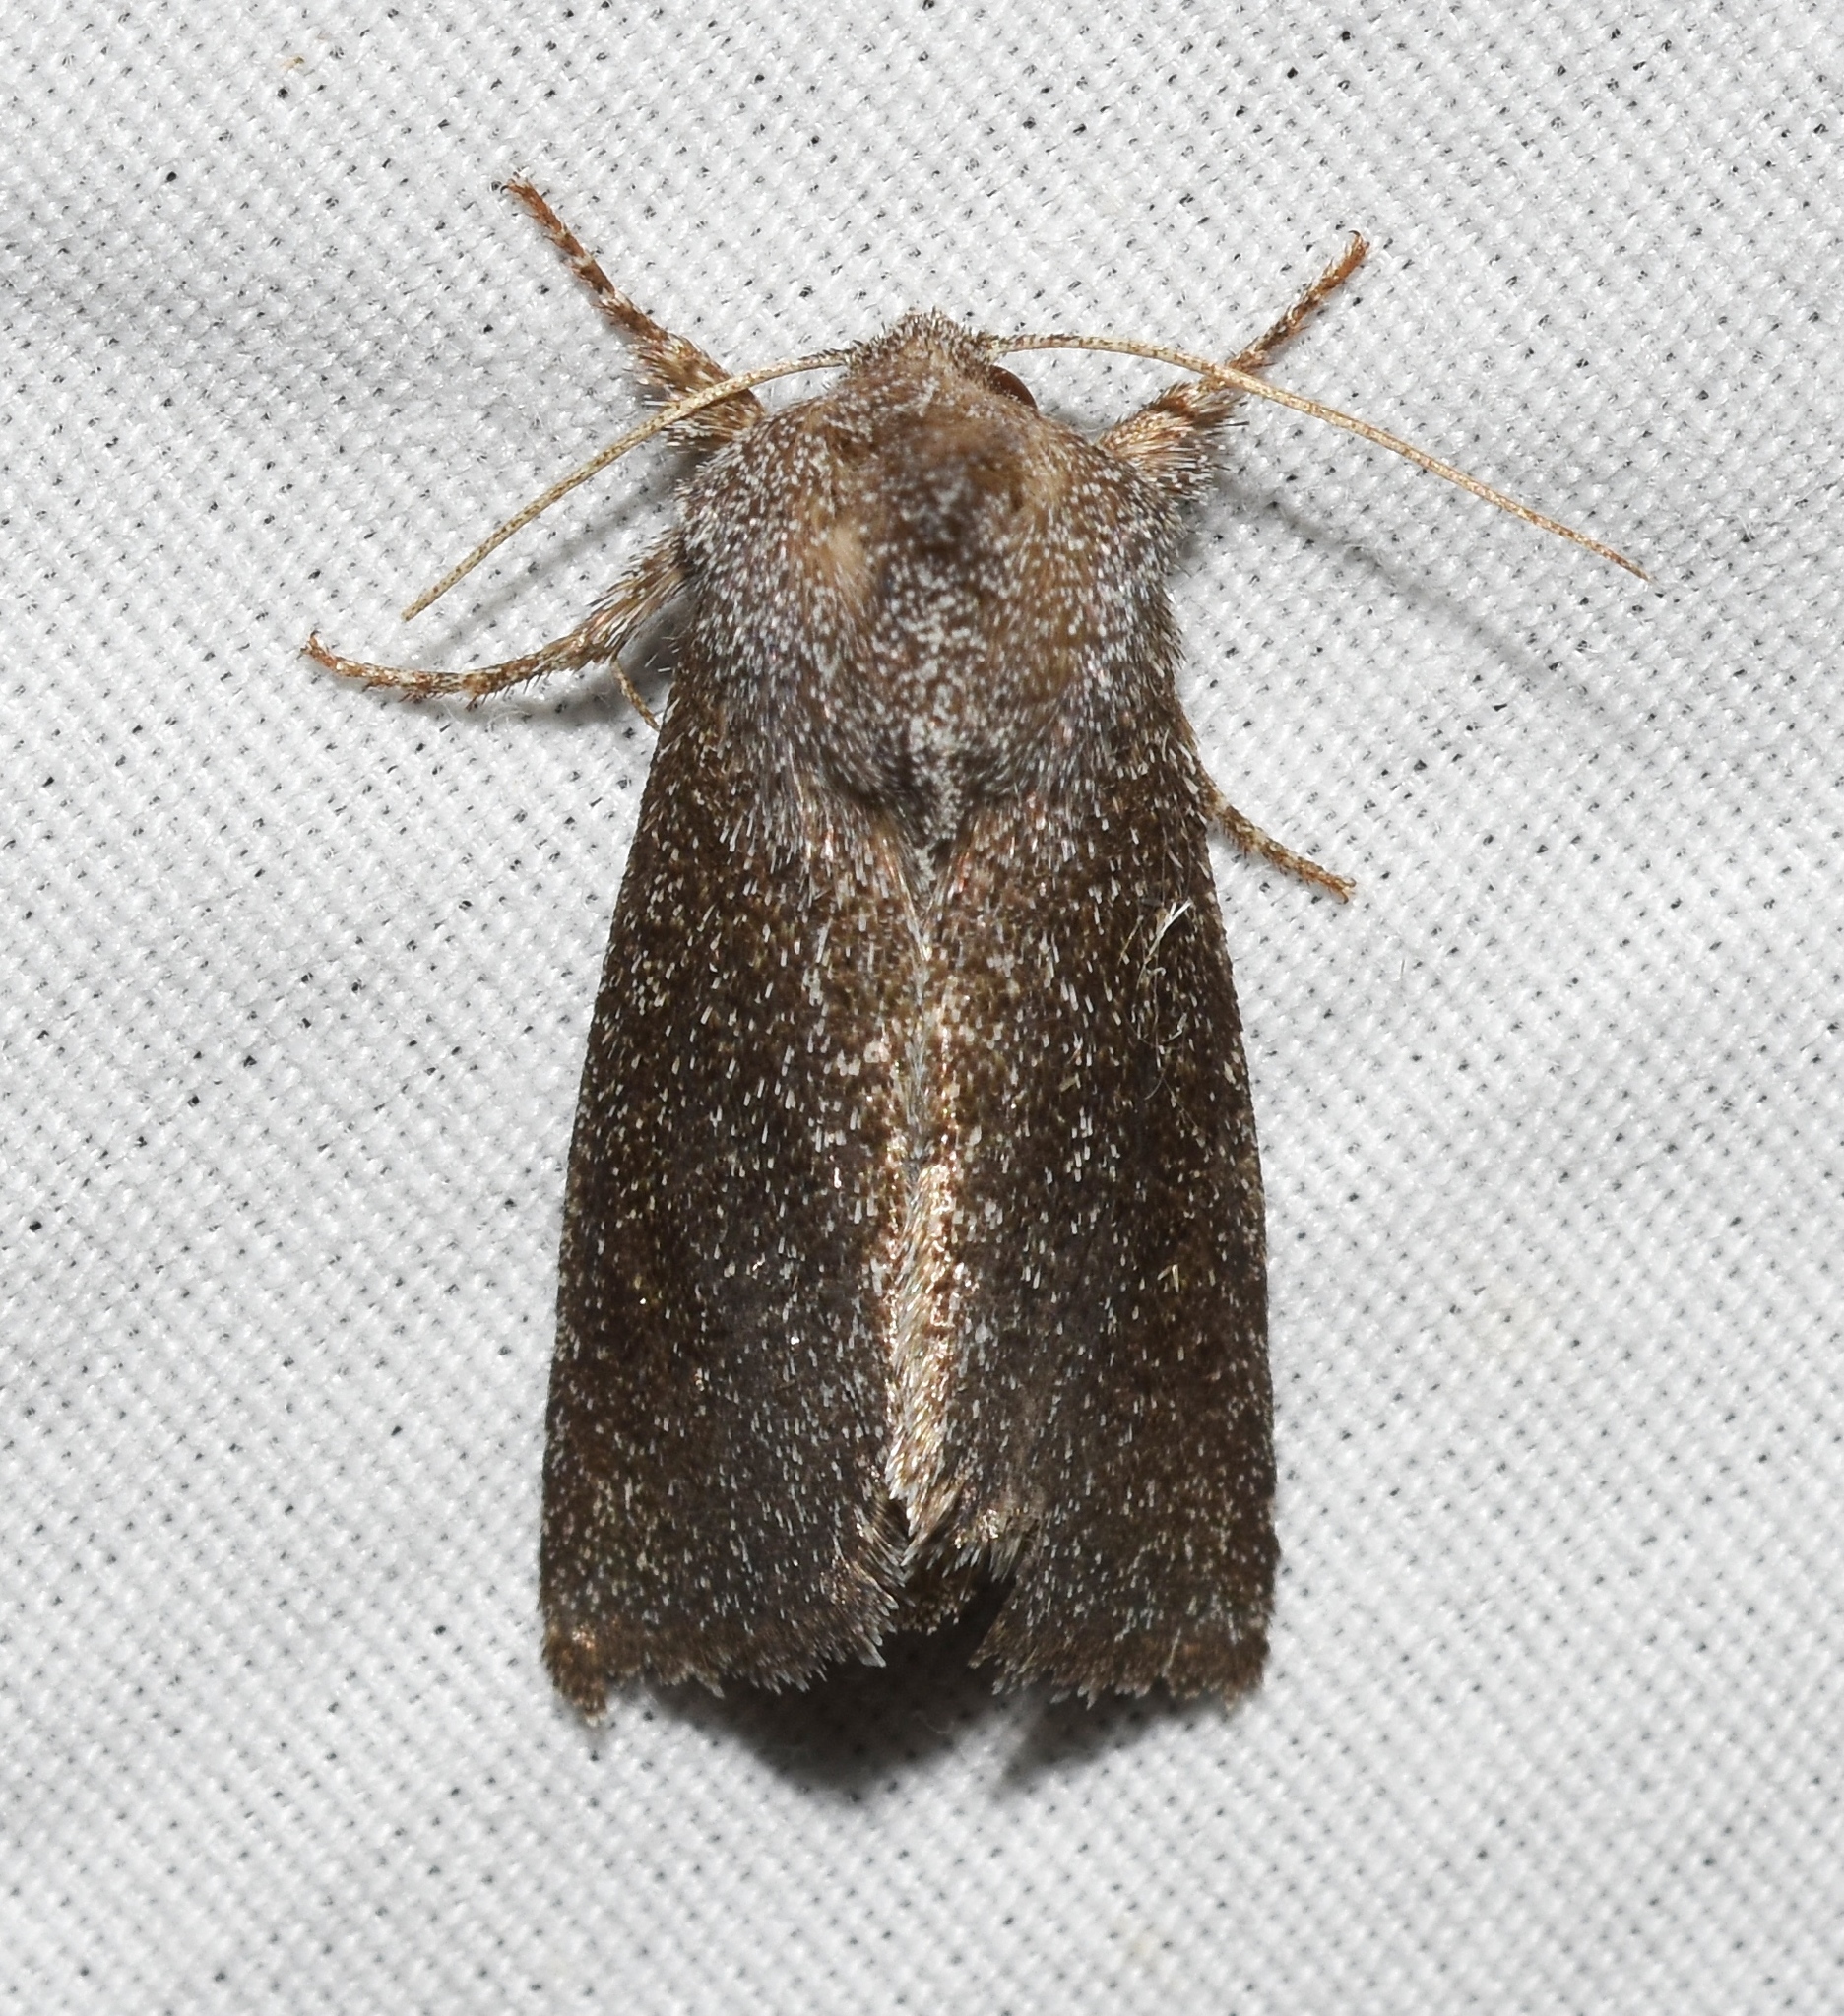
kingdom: Animalia
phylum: Arthropoda
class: Insecta
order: Lepidoptera
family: Noctuidae
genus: Papaipema
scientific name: Papaipema necopina
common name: Sunflower borer moth
